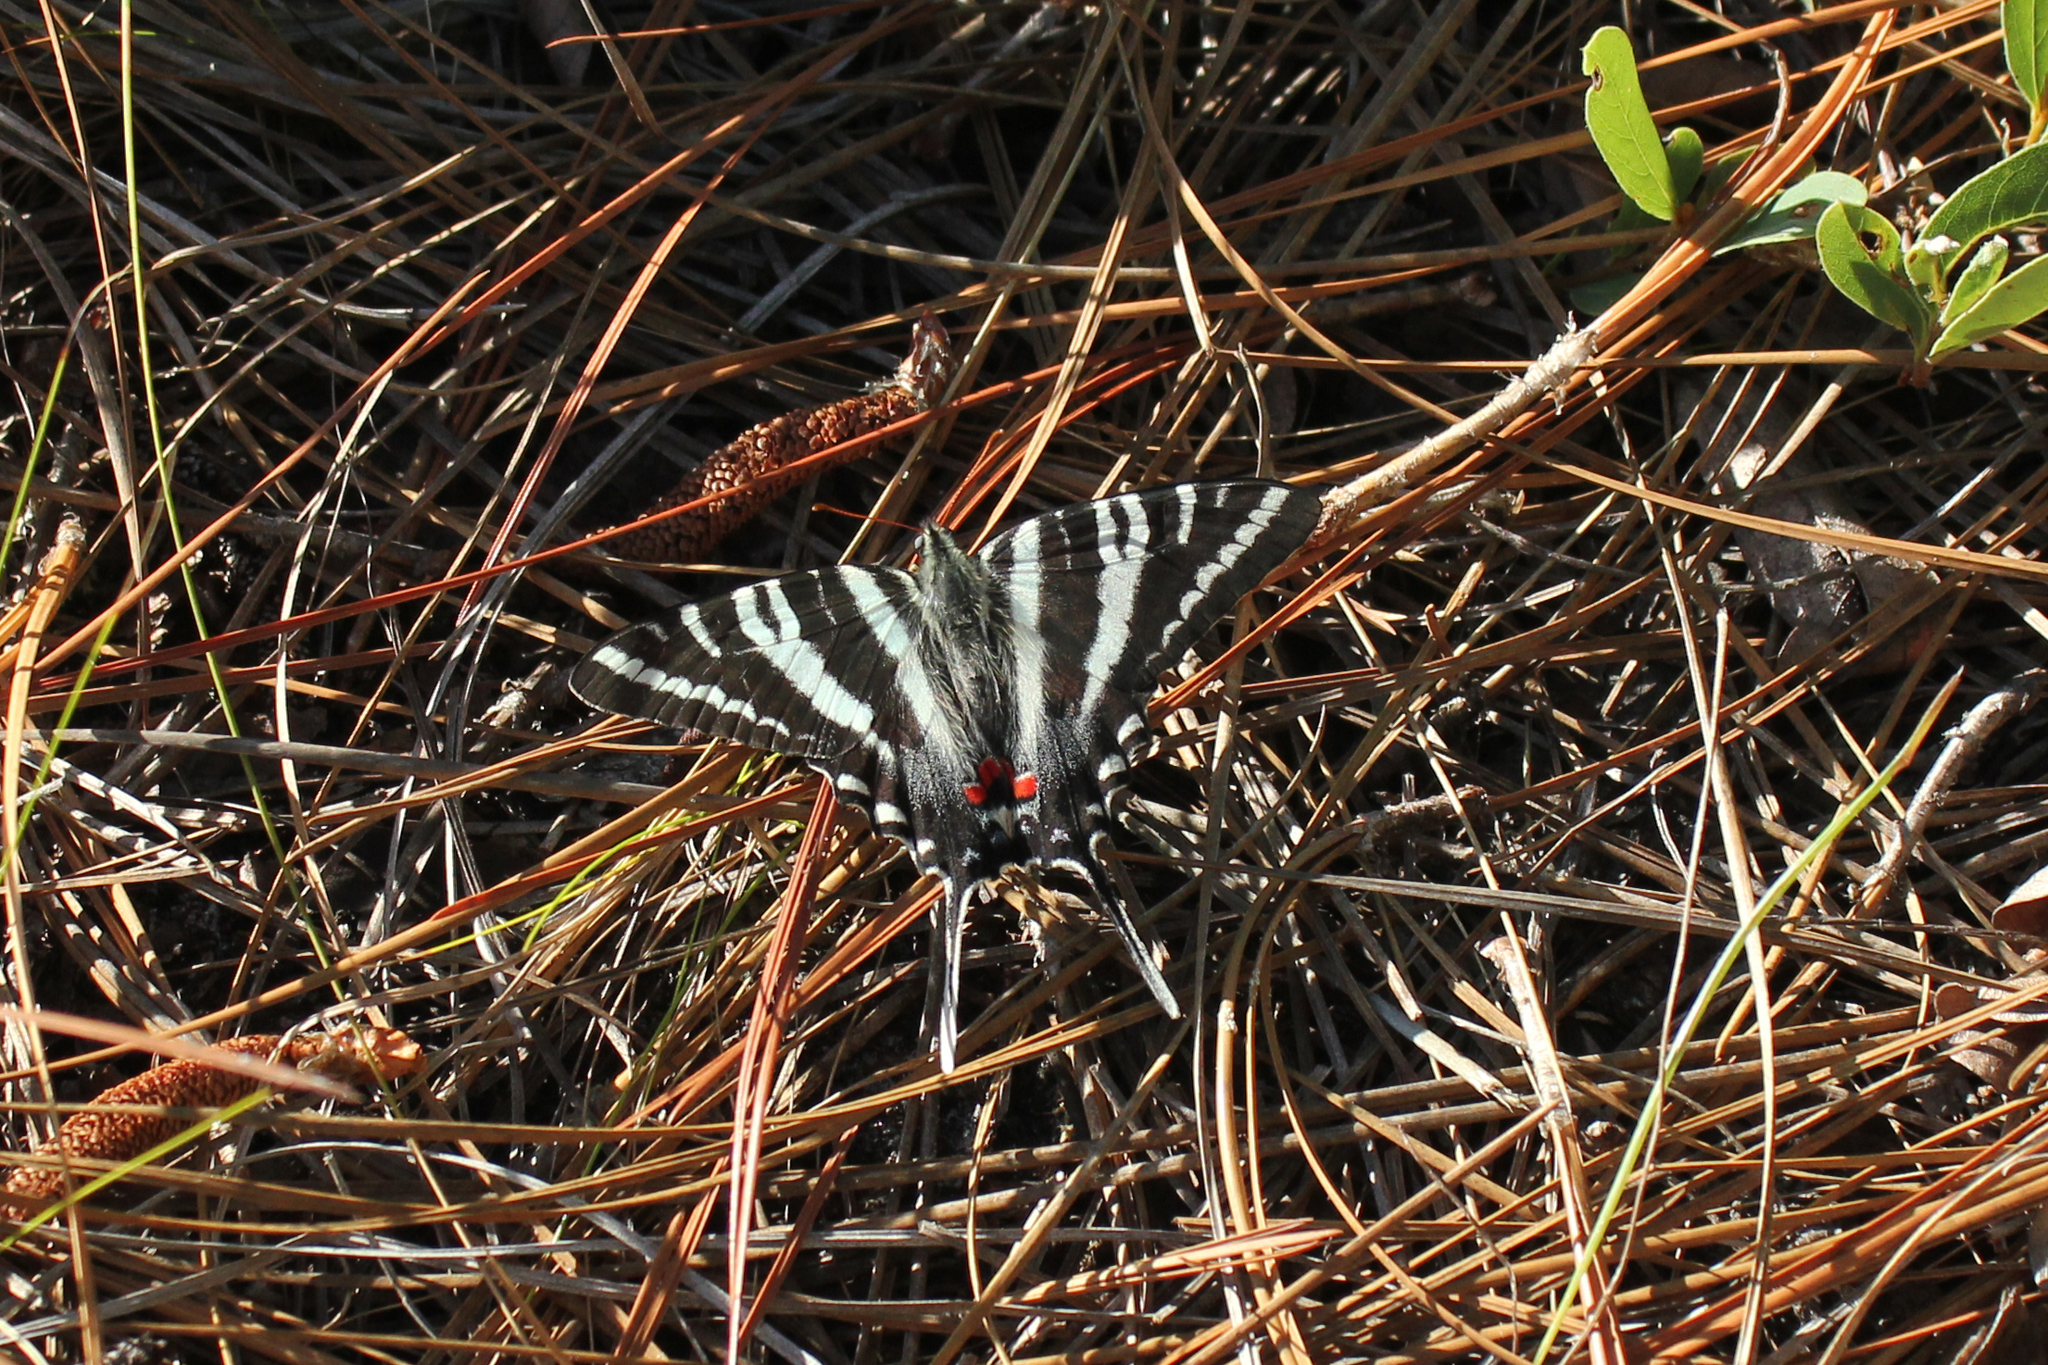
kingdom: Animalia
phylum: Arthropoda
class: Insecta
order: Lepidoptera
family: Papilionidae
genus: Protographium
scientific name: Protographium marcellus
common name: Zebra swallowtail
